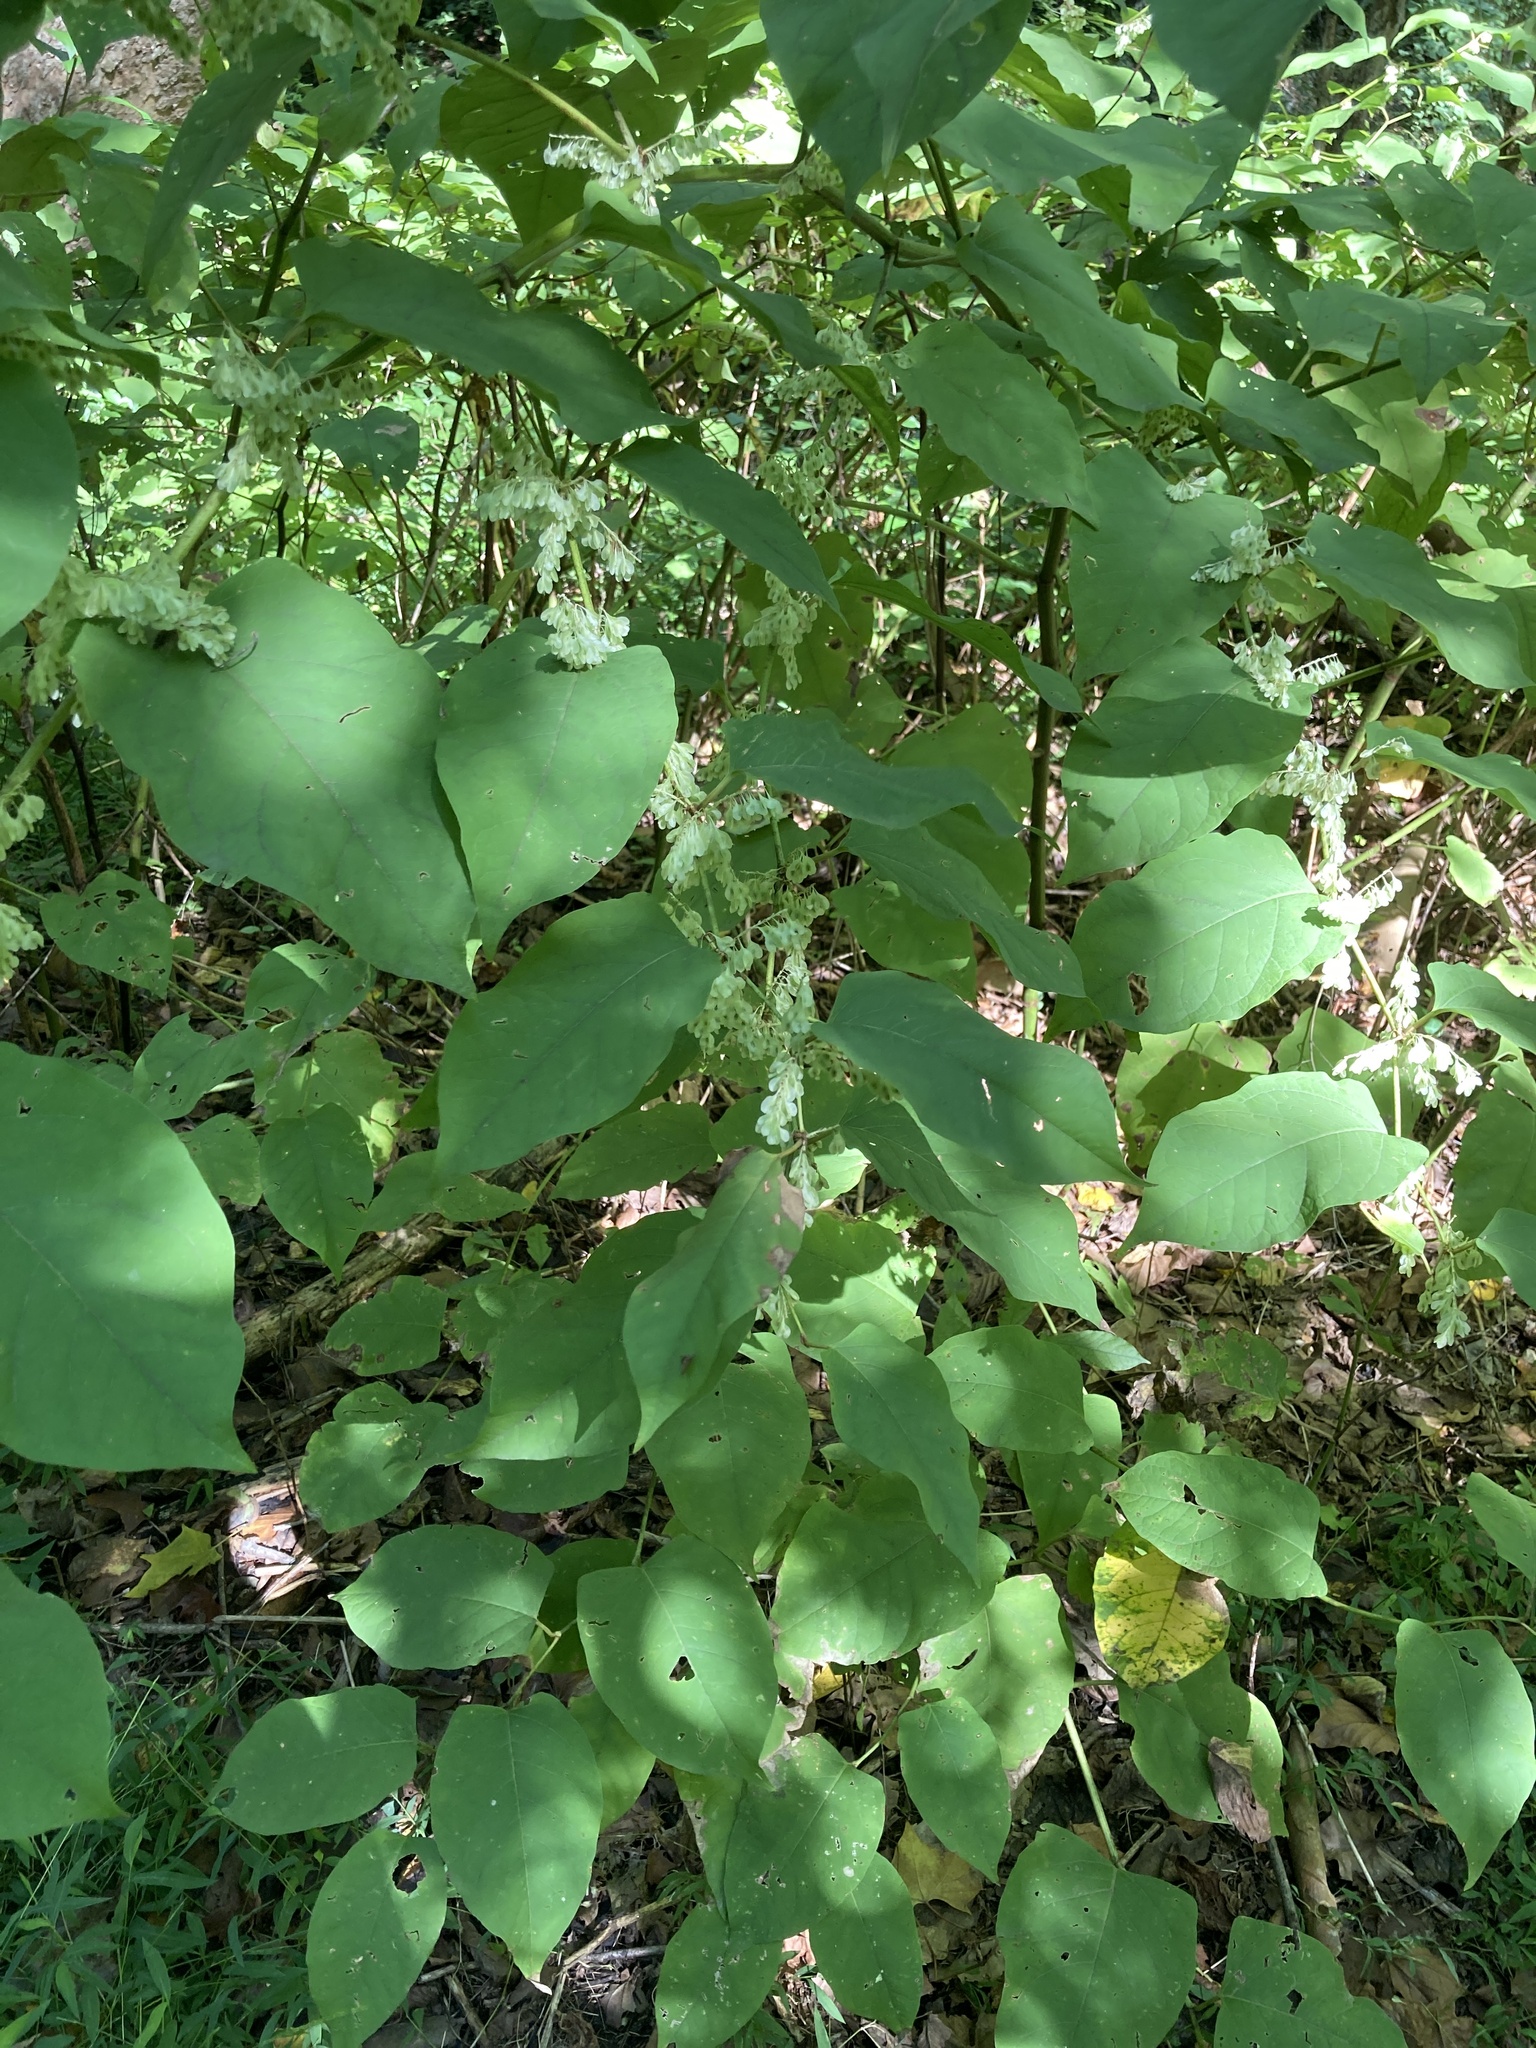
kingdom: Plantae
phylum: Tracheophyta
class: Magnoliopsida
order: Caryophyllales
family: Polygonaceae
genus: Reynoutria
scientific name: Reynoutria japonica
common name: Japanese knotweed
